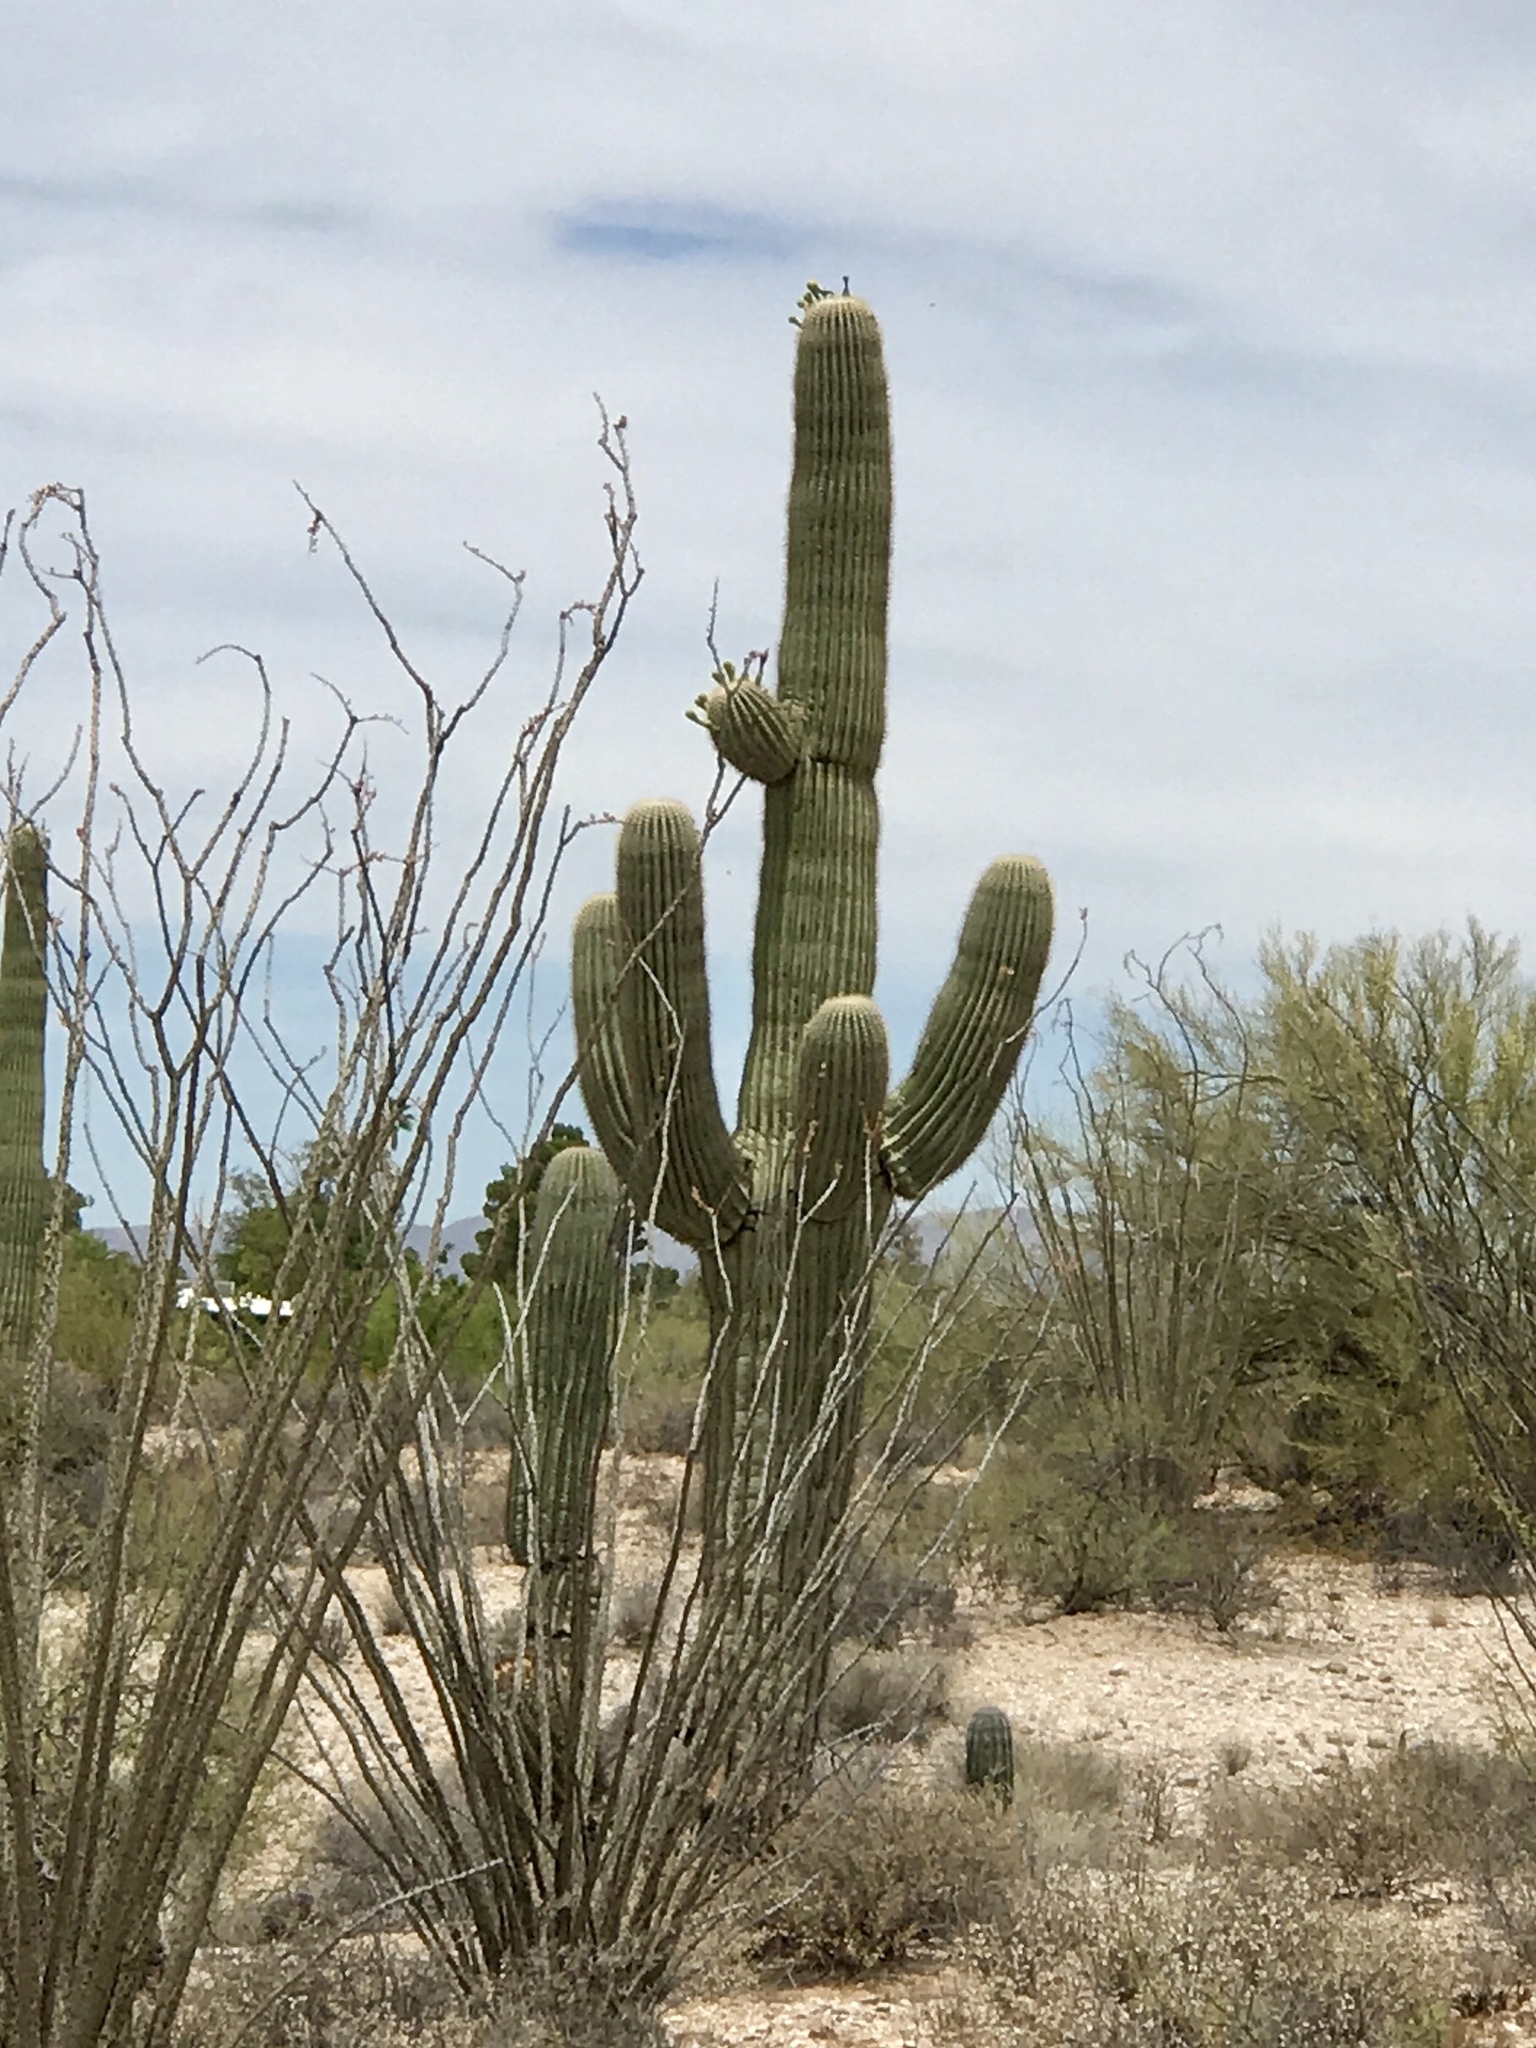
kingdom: Plantae
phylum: Tracheophyta
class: Magnoliopsida
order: Caryophyllales
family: Cactaceae
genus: Carnegiea
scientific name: Carnegiea gigantea
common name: Saguaro
